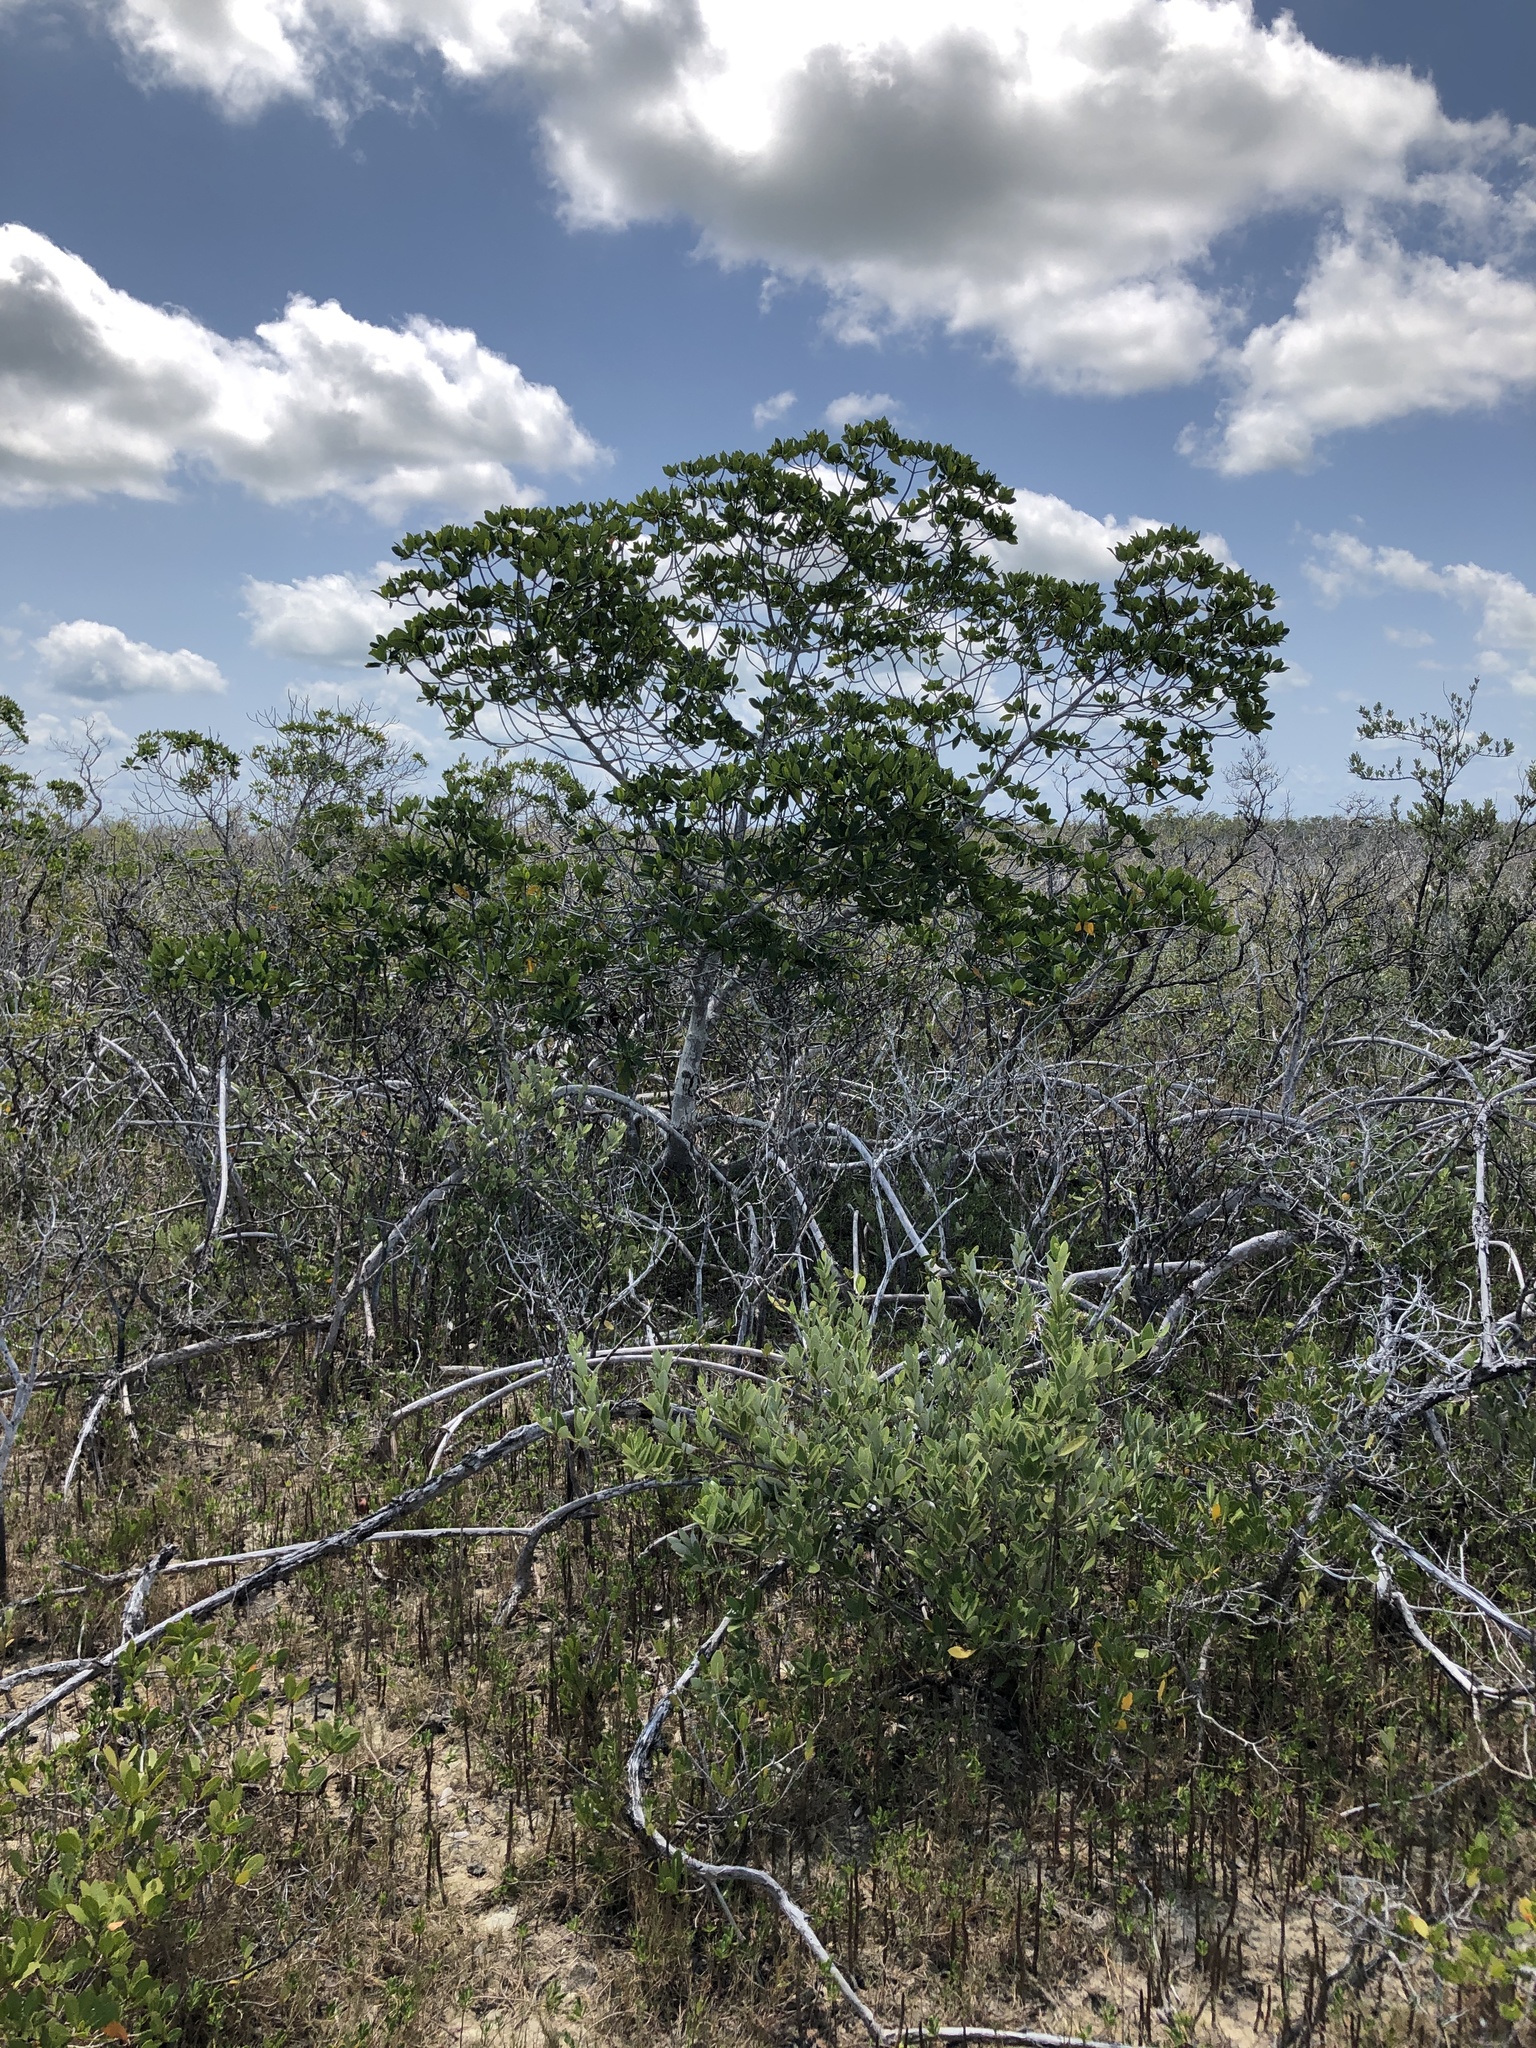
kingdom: Plantae
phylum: Tracheophyta
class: Magnoliopsida
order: Malpighiales
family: Rhizophoraceae
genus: Rhizophora
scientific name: Rhizophora mangle
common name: Red mangrove
